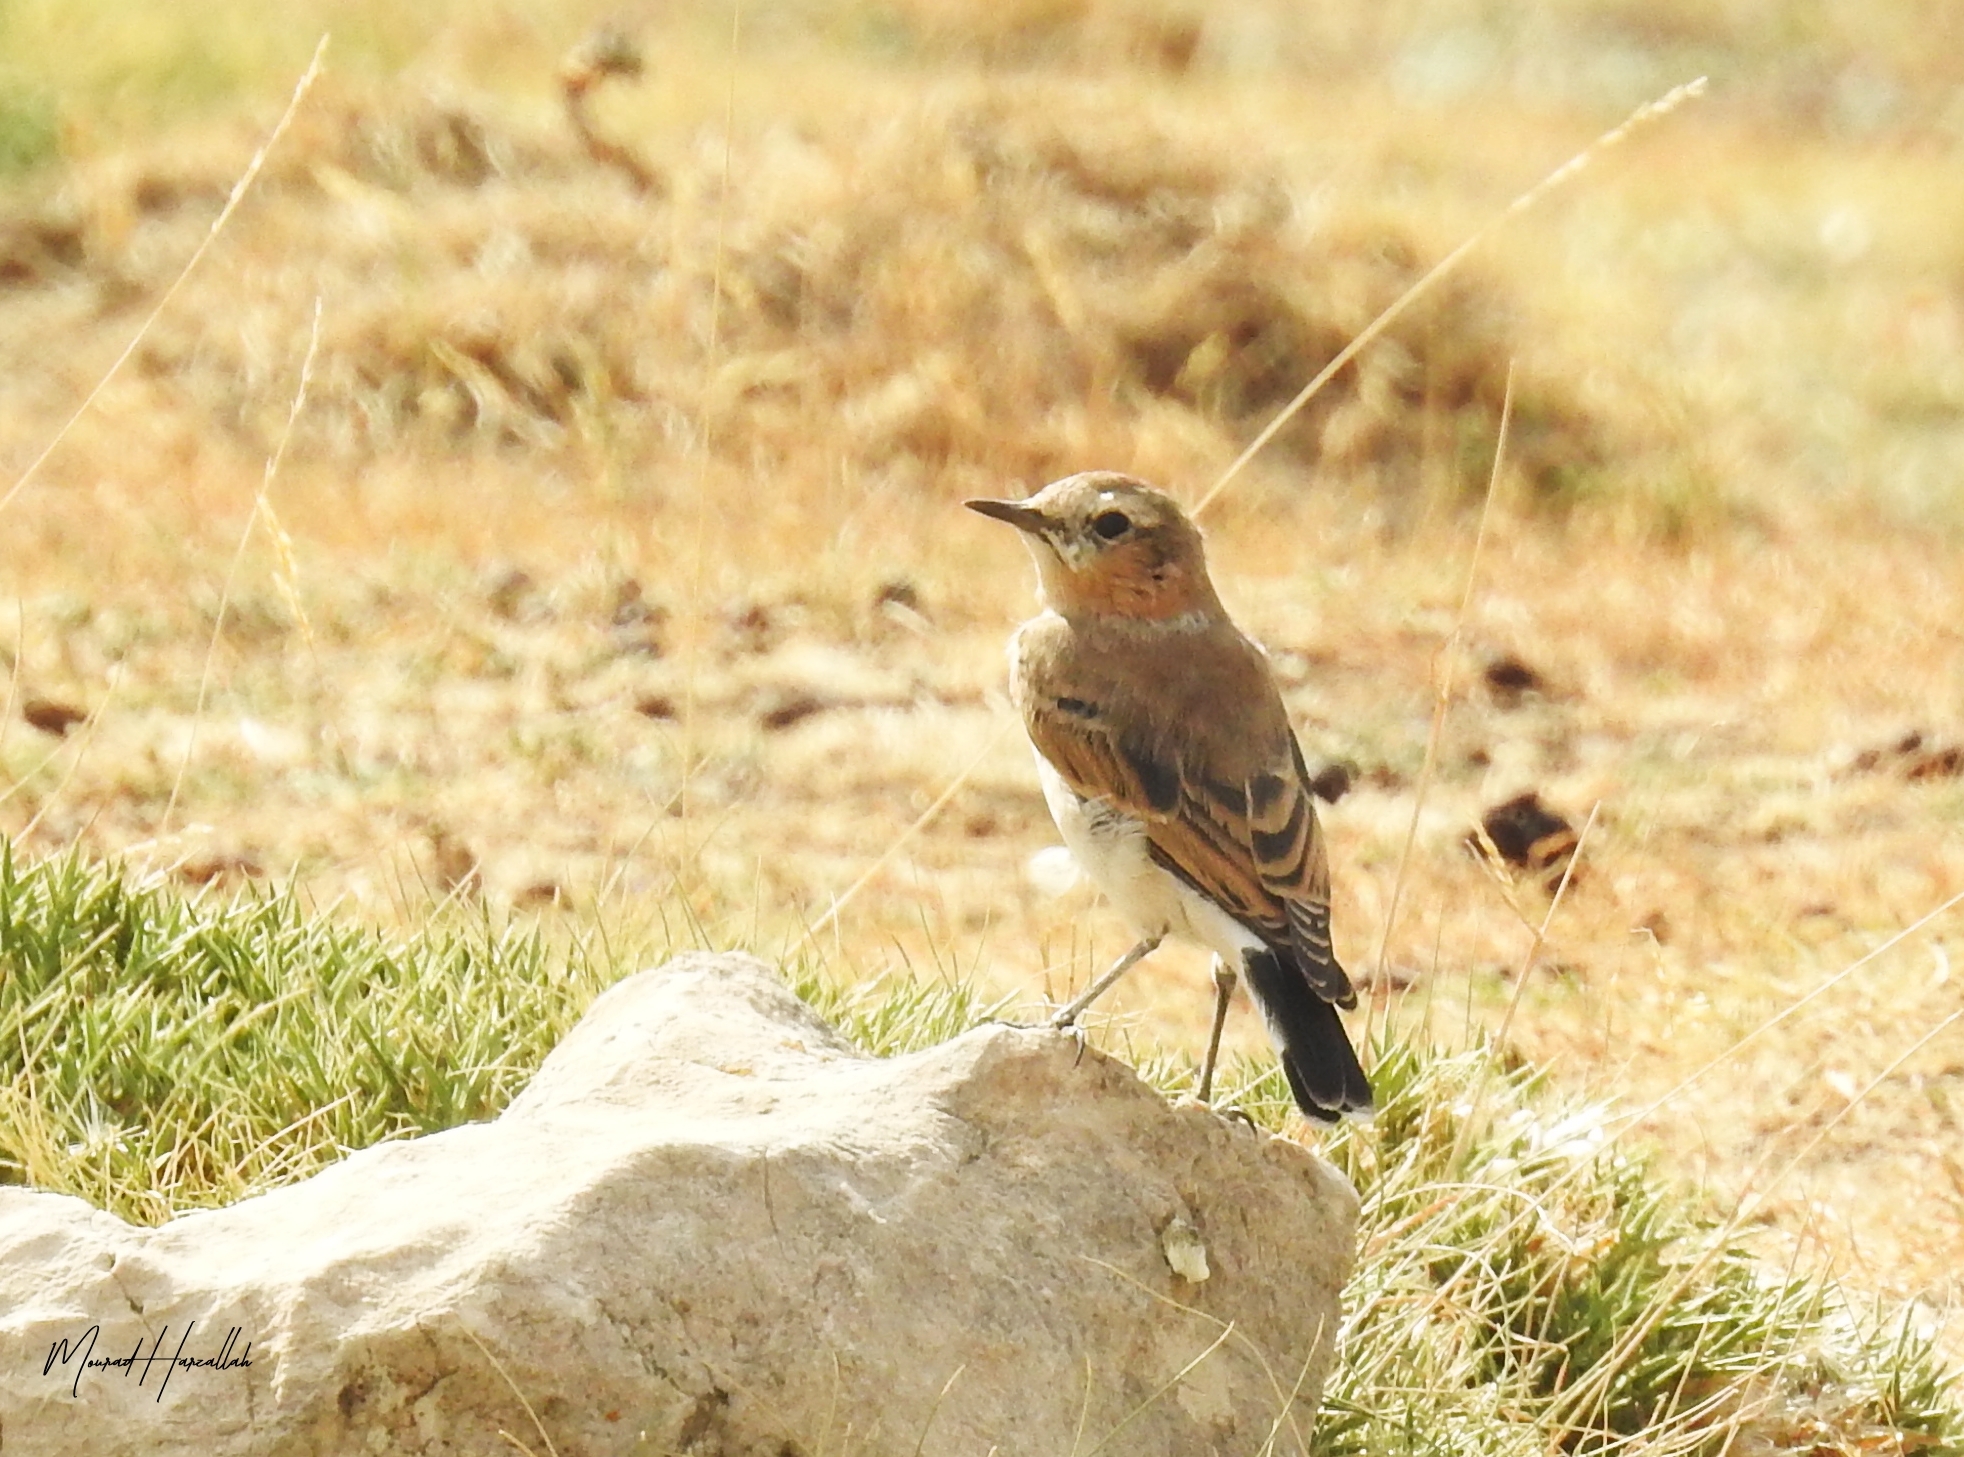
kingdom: Animalia
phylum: Chordata
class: Aves
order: Passeriformes
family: Muscicapidae
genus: Oenanthe
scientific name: Oenanthe oenanthe
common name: Northern wheatear
